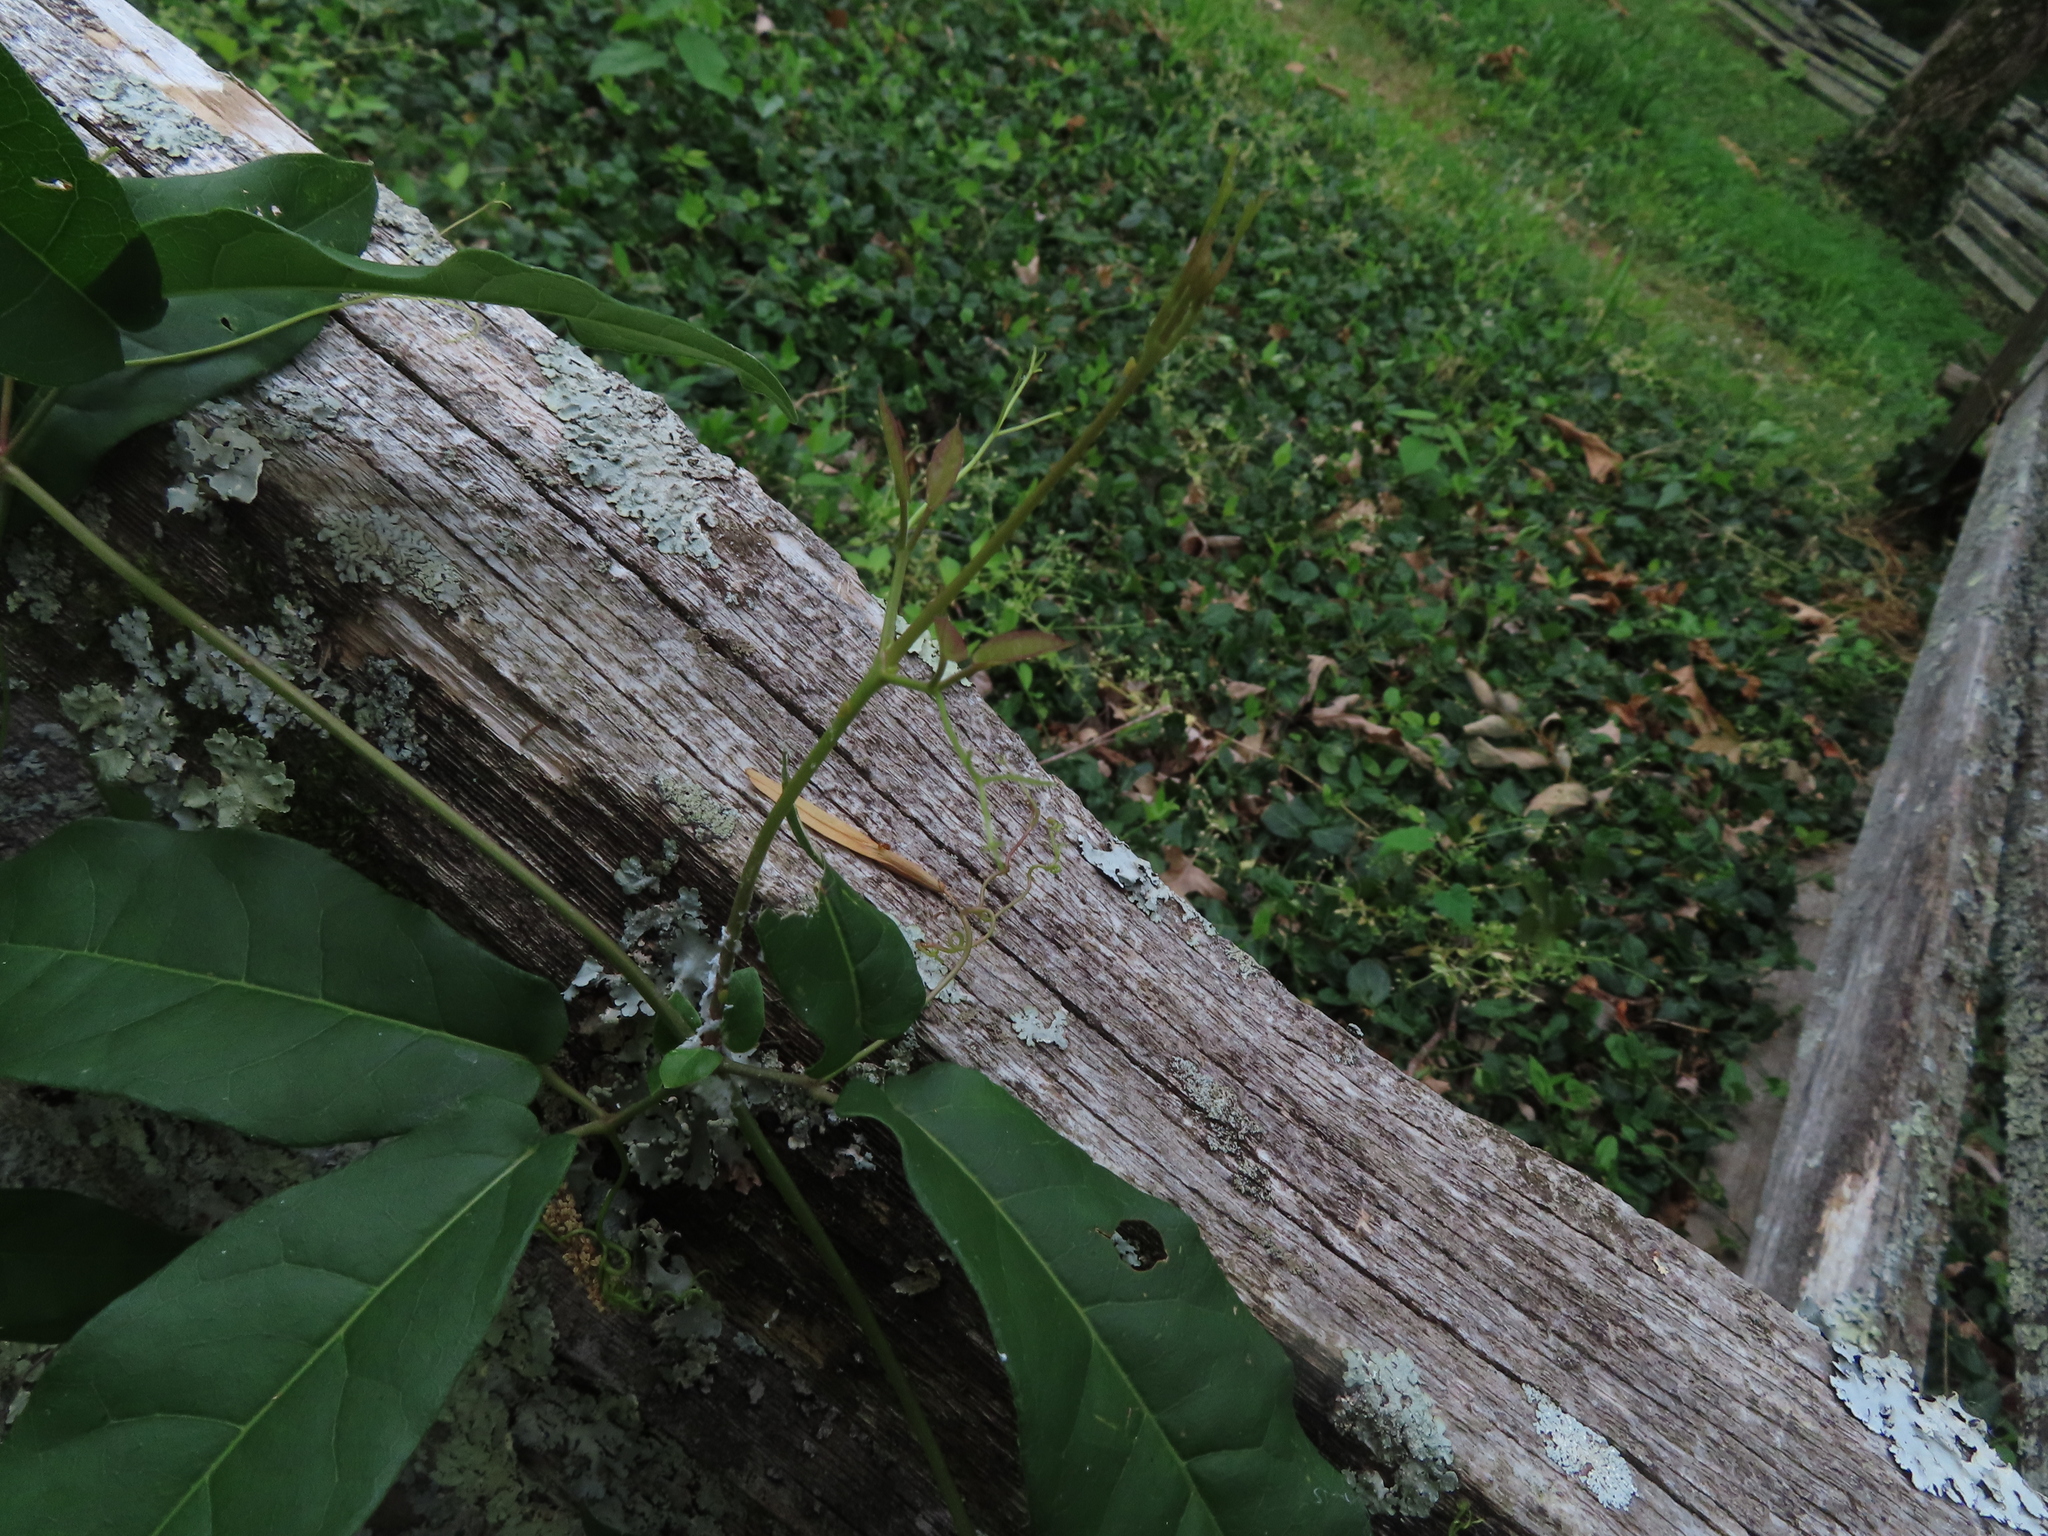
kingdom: Plantae
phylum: Tracheophyta
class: Magnoliopsida
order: Lamiales
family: Bignoniaceae
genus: Bignonia
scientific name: Bignonia capreolata
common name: Crossvine
